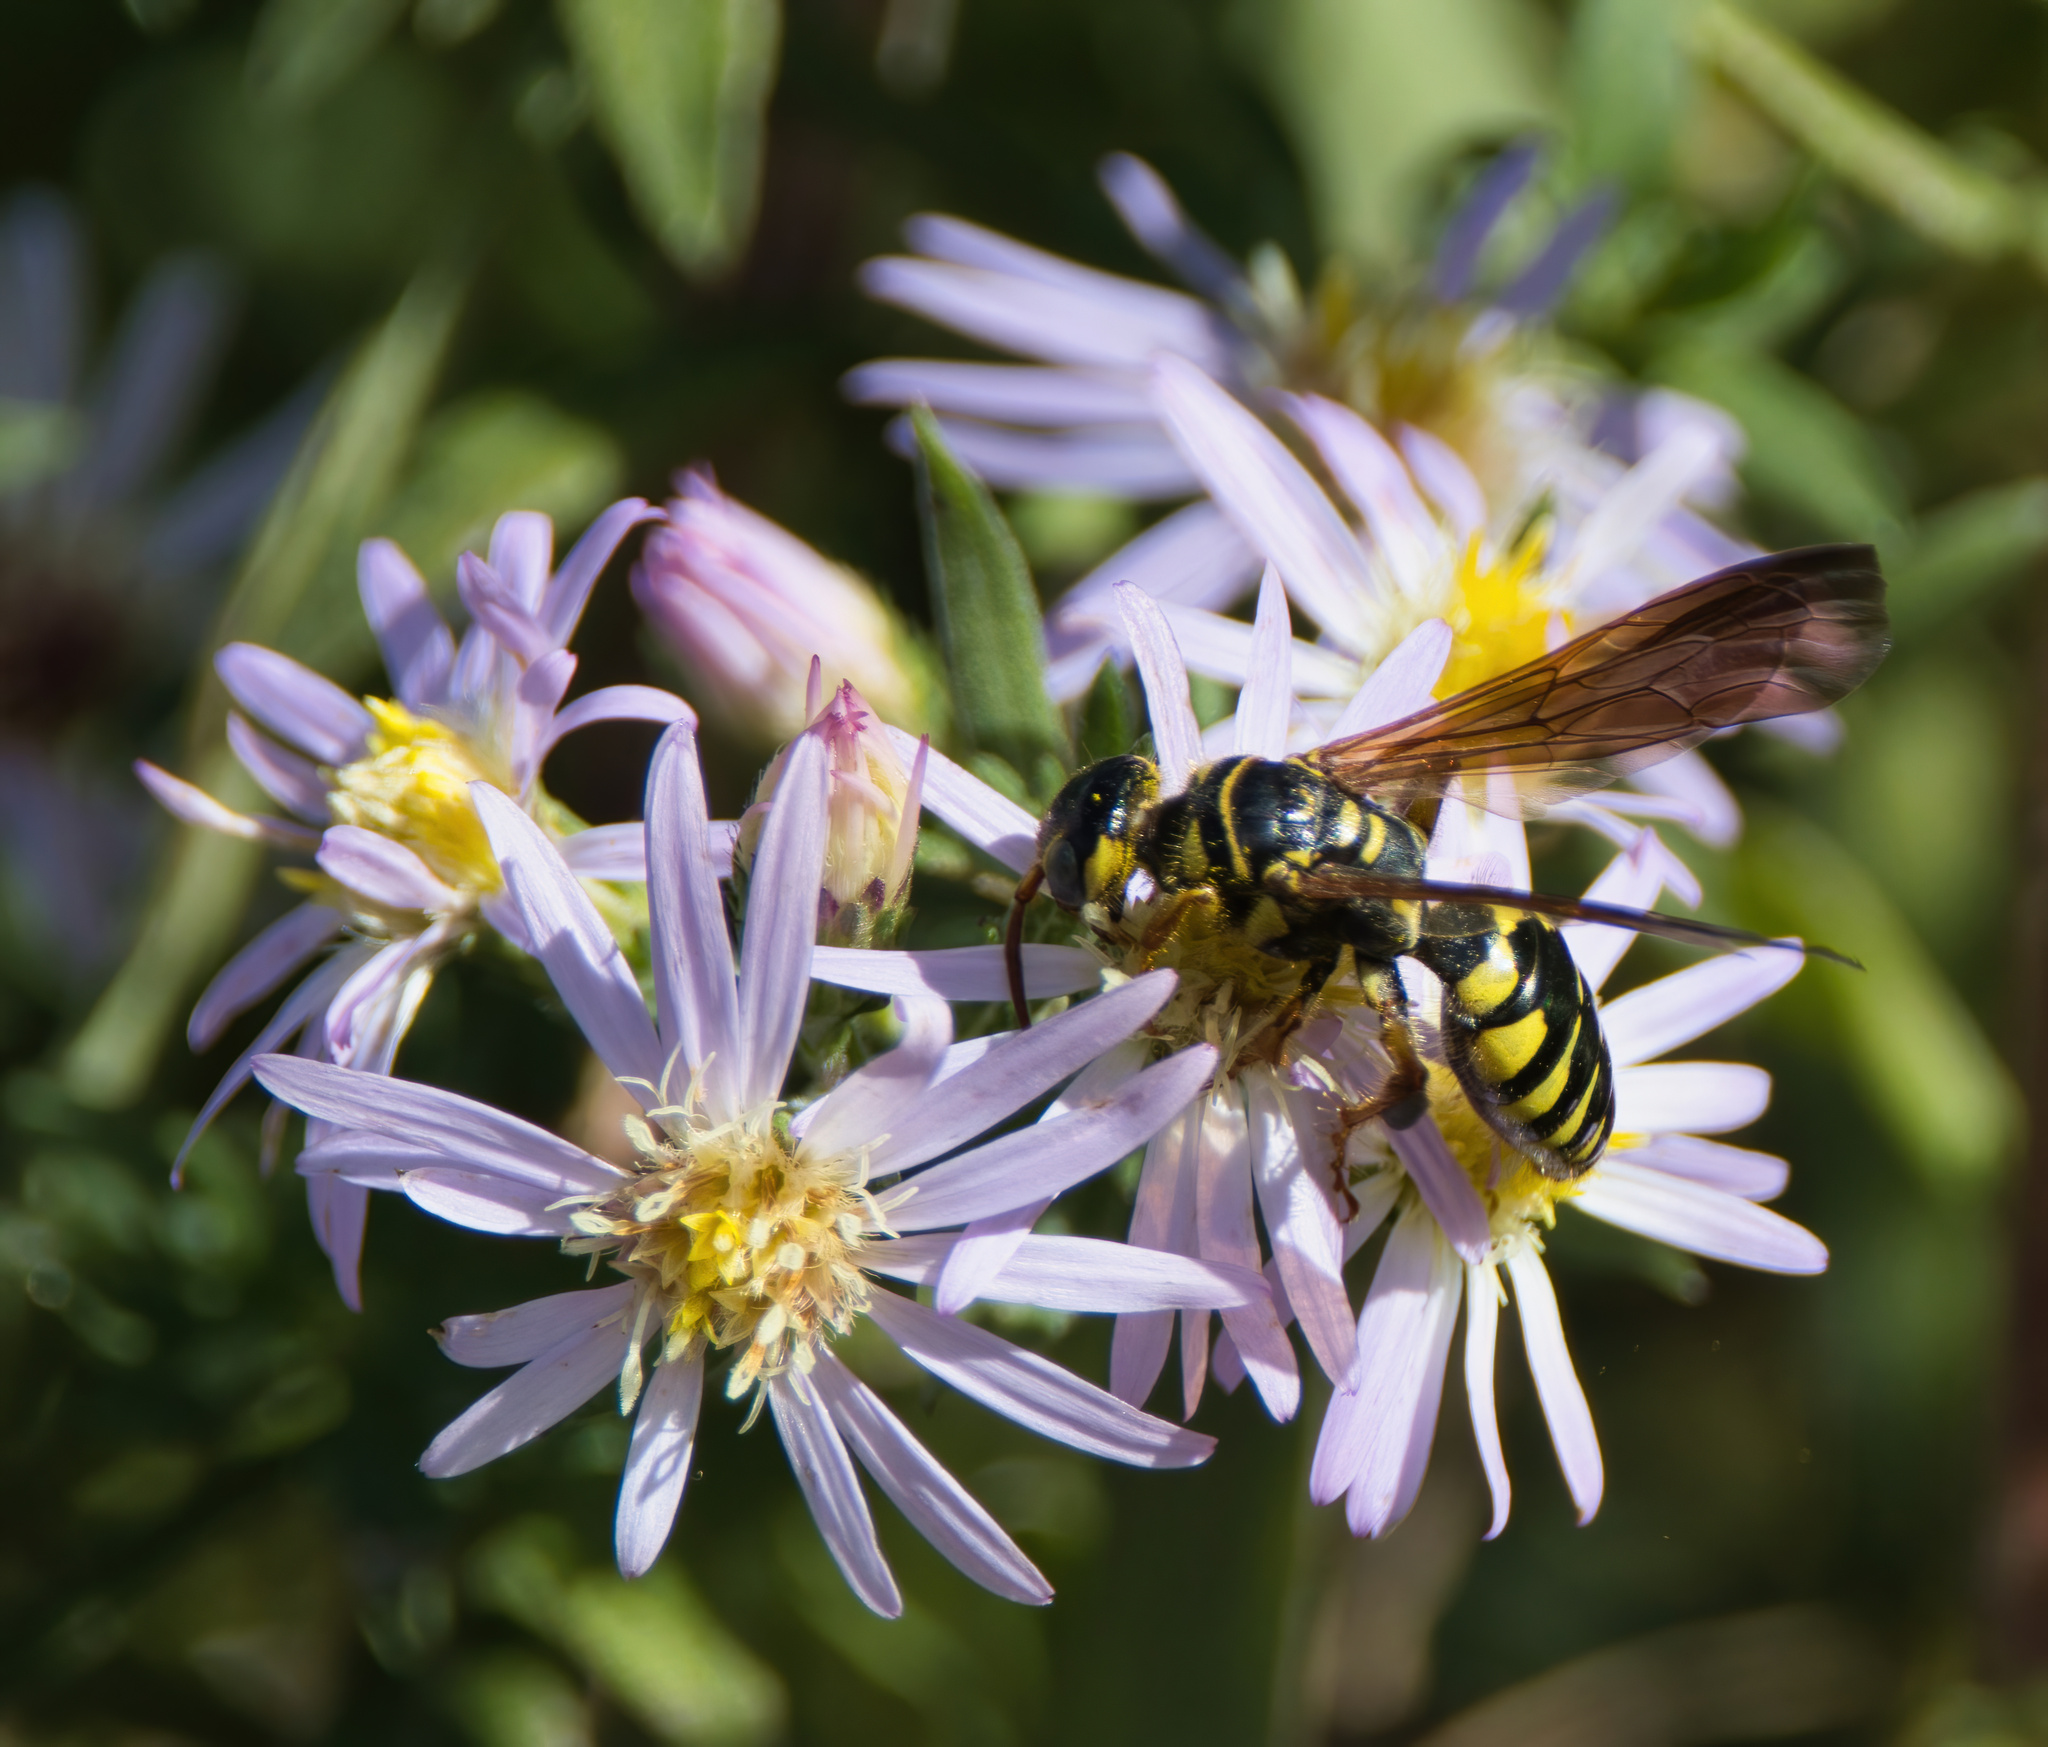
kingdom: Animalia
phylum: Arthropoda
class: Insecta
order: Hymenoptera
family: Tiphiidae
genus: Myzinum
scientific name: Myzinum quinquecinctum
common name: Five-banded thynnid wasp
